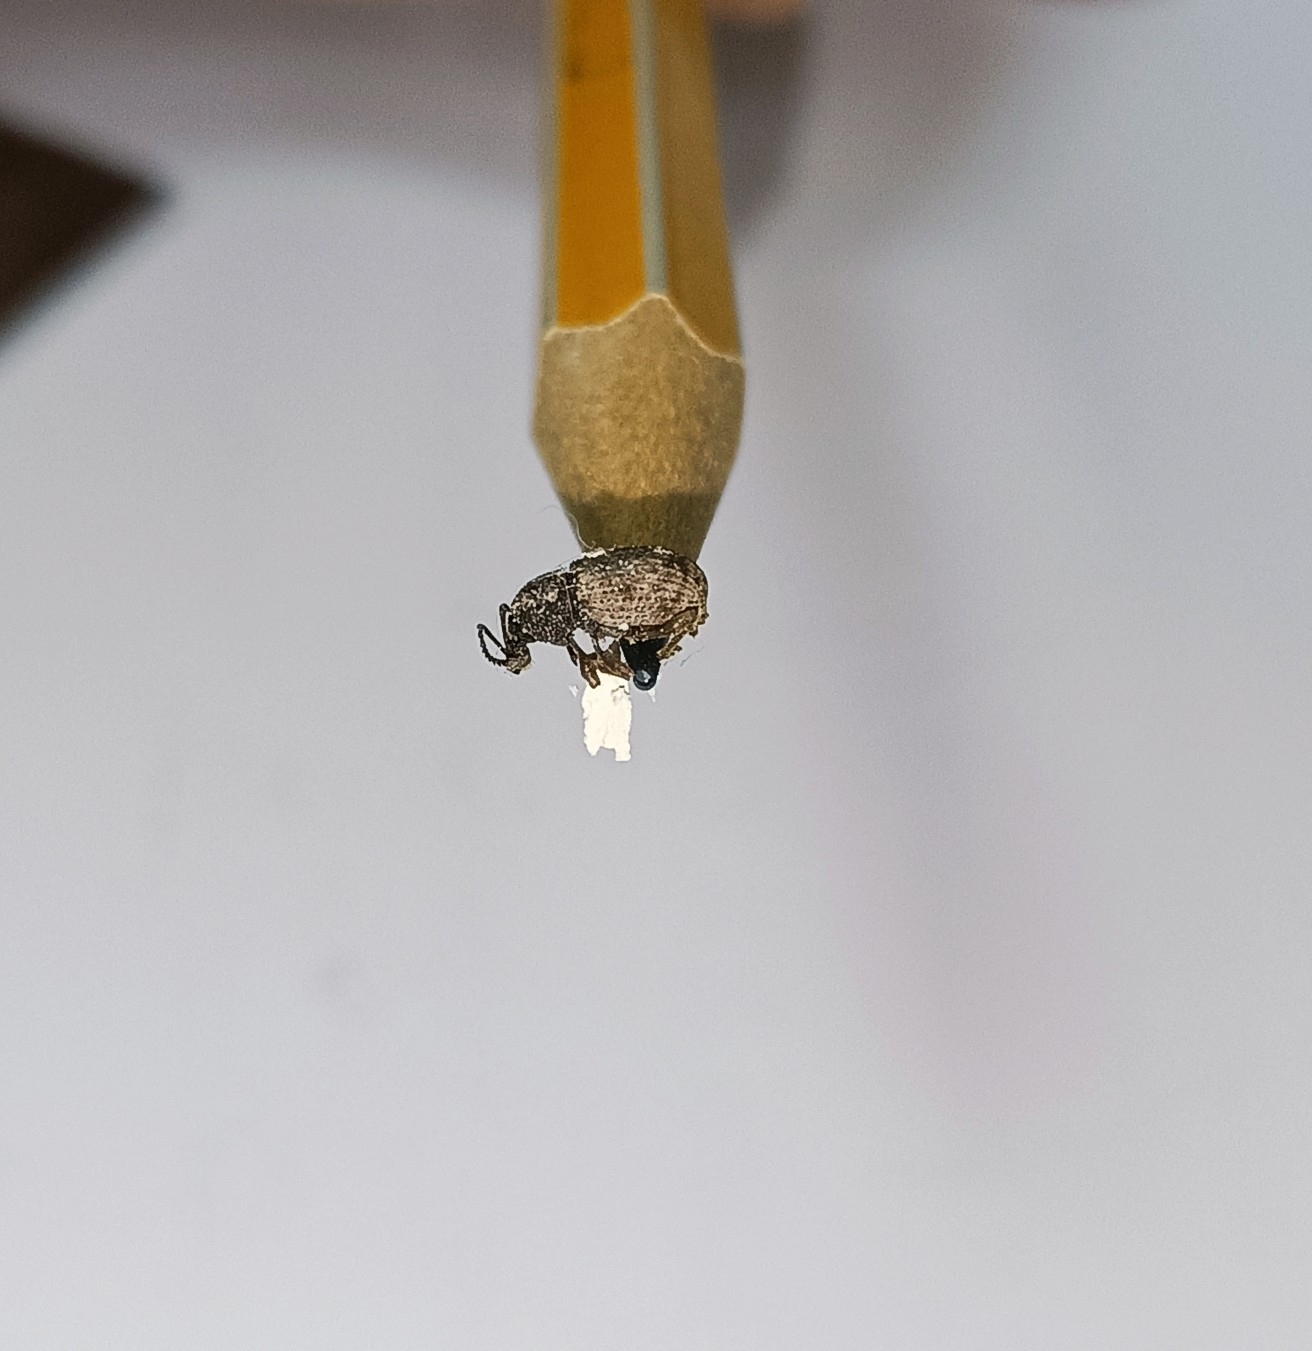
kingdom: Animalia
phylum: Arthropoda
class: Insecta
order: Coleoptera
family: Curculionidae
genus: Otiorhynchus
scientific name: Otiorhynchus raucus
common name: Weevil
